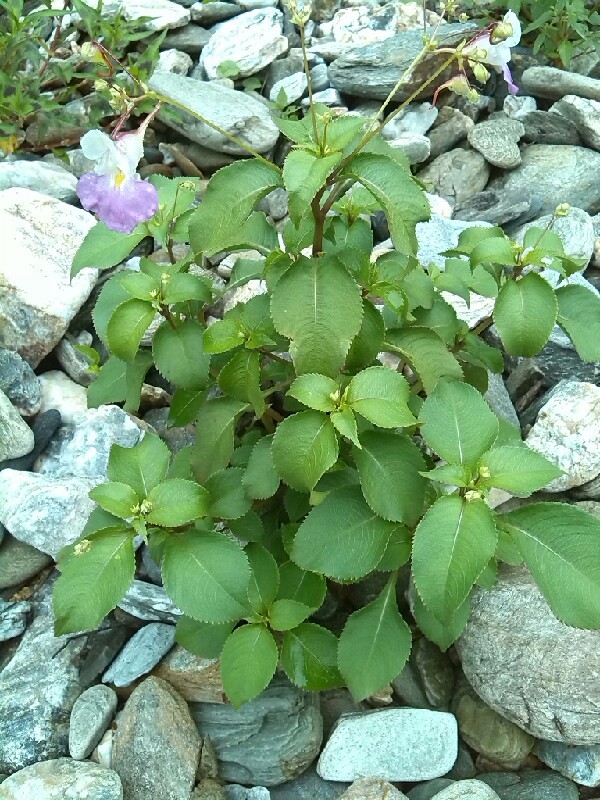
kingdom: Plantae
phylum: Tracheophyta
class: Magnoliopsida
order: Ericales
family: Balsaminaceae
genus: Impatiens
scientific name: Impatiens balfourii
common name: Balfour's touch-me-not
